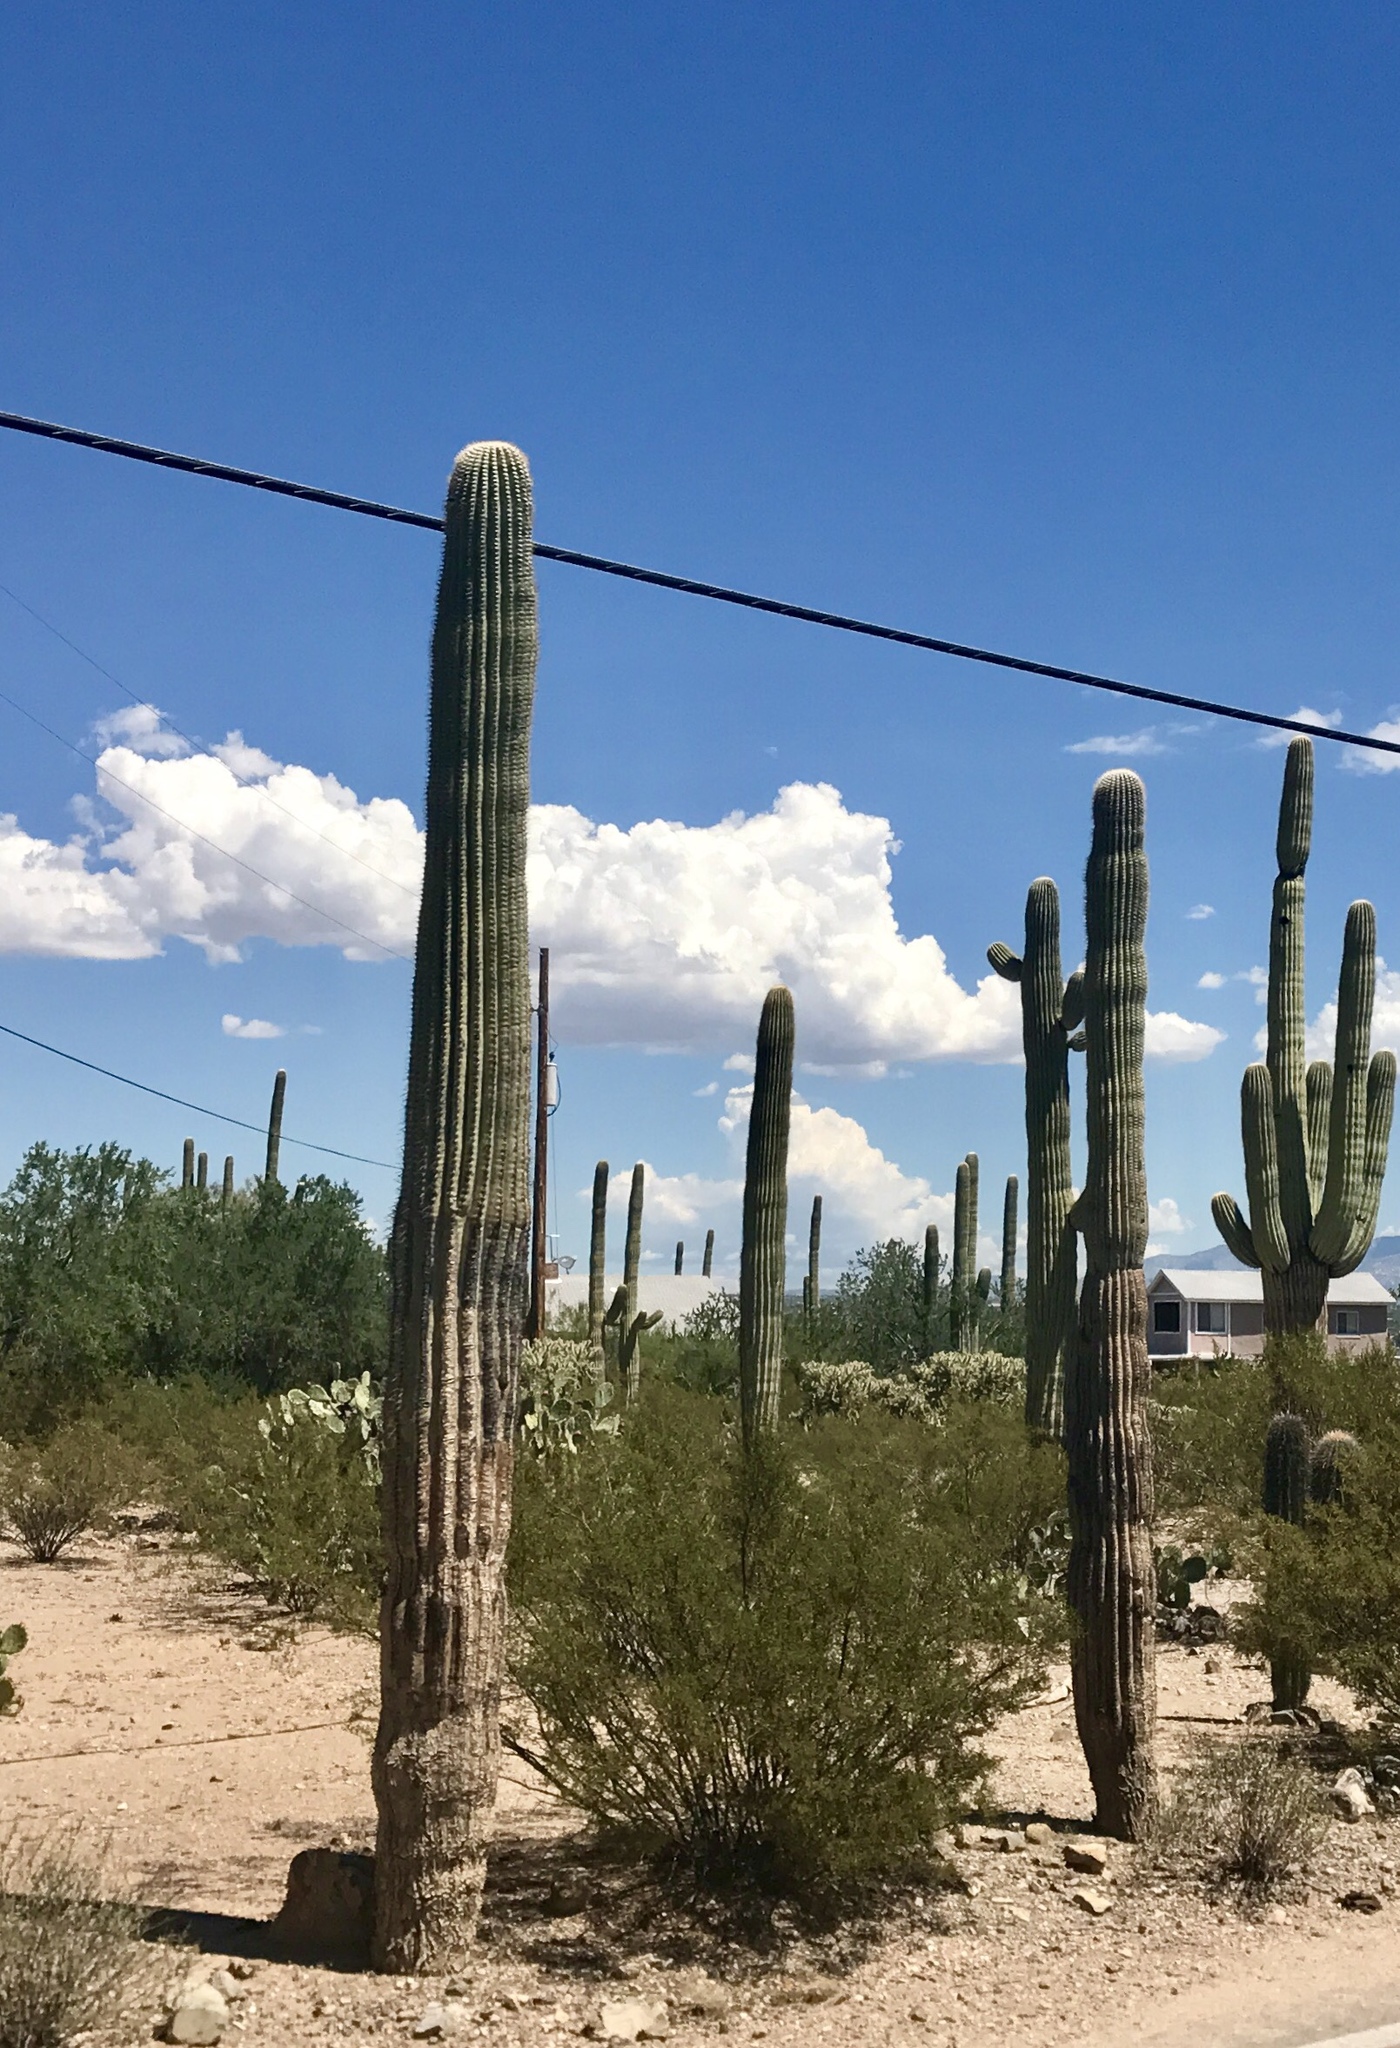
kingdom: Plantae
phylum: Tracheophyta
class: Magnoliopsida
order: Caryophyllales
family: Cactaceae
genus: Carnegiea
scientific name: Carnegiea gigantea
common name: Saguaro
